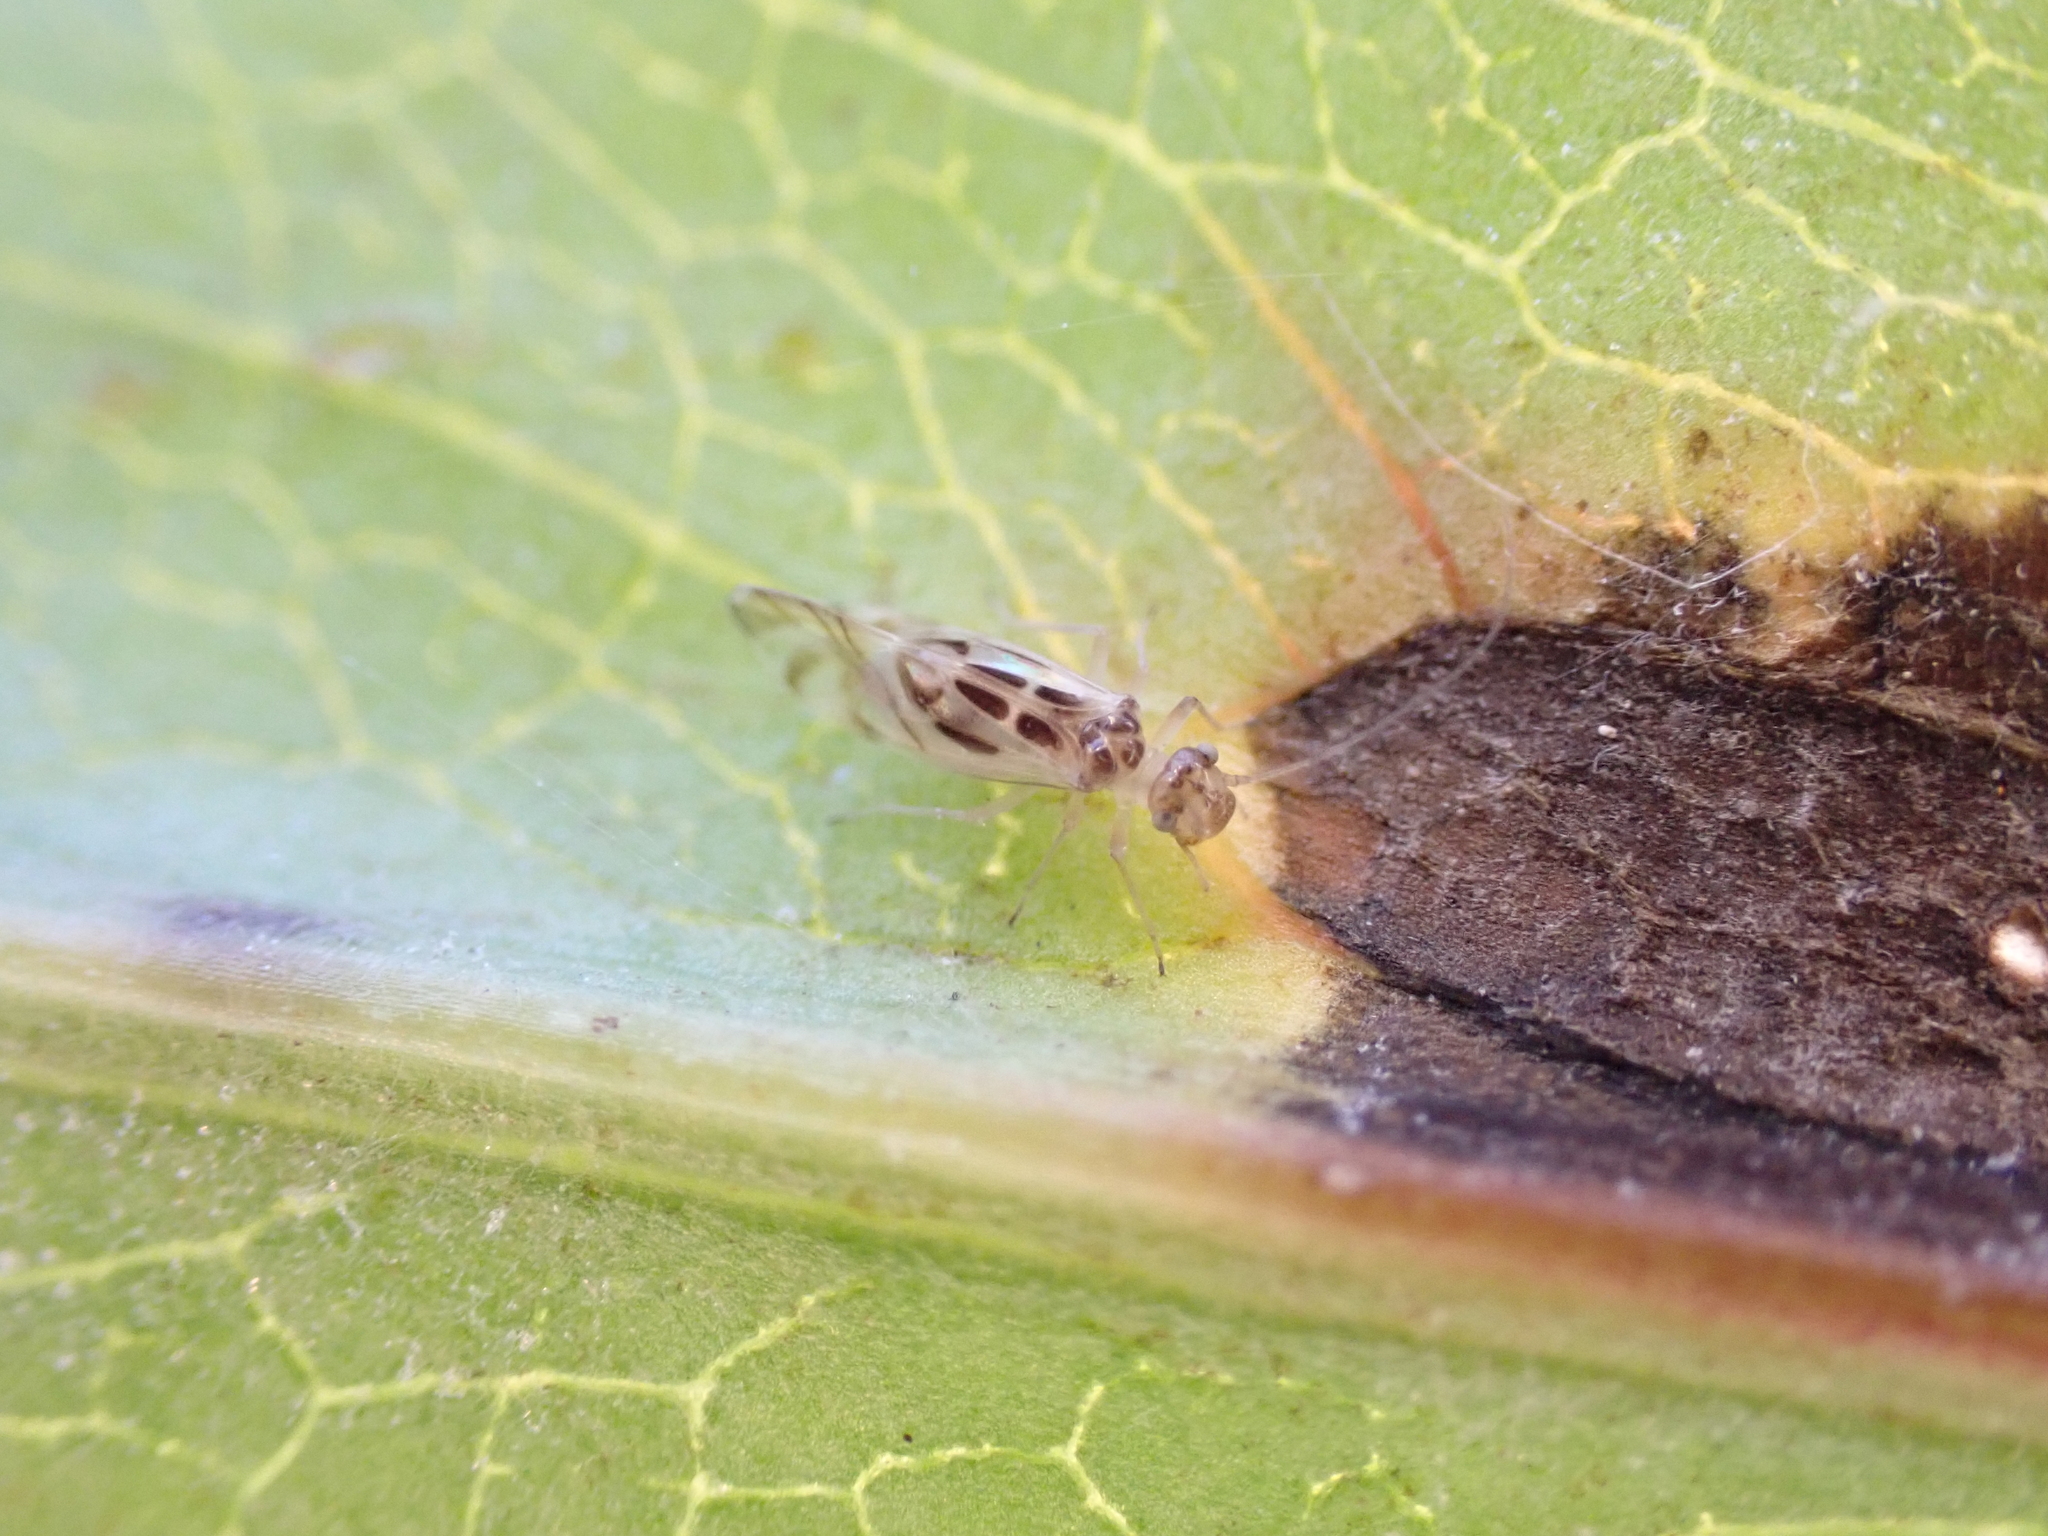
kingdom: Animalia
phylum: Arthropoda
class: Insecta
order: Psocodea
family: Stenopsocidae
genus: Graphopsocus
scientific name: Graphopsocus cruciatus
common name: Lizard bark louse
